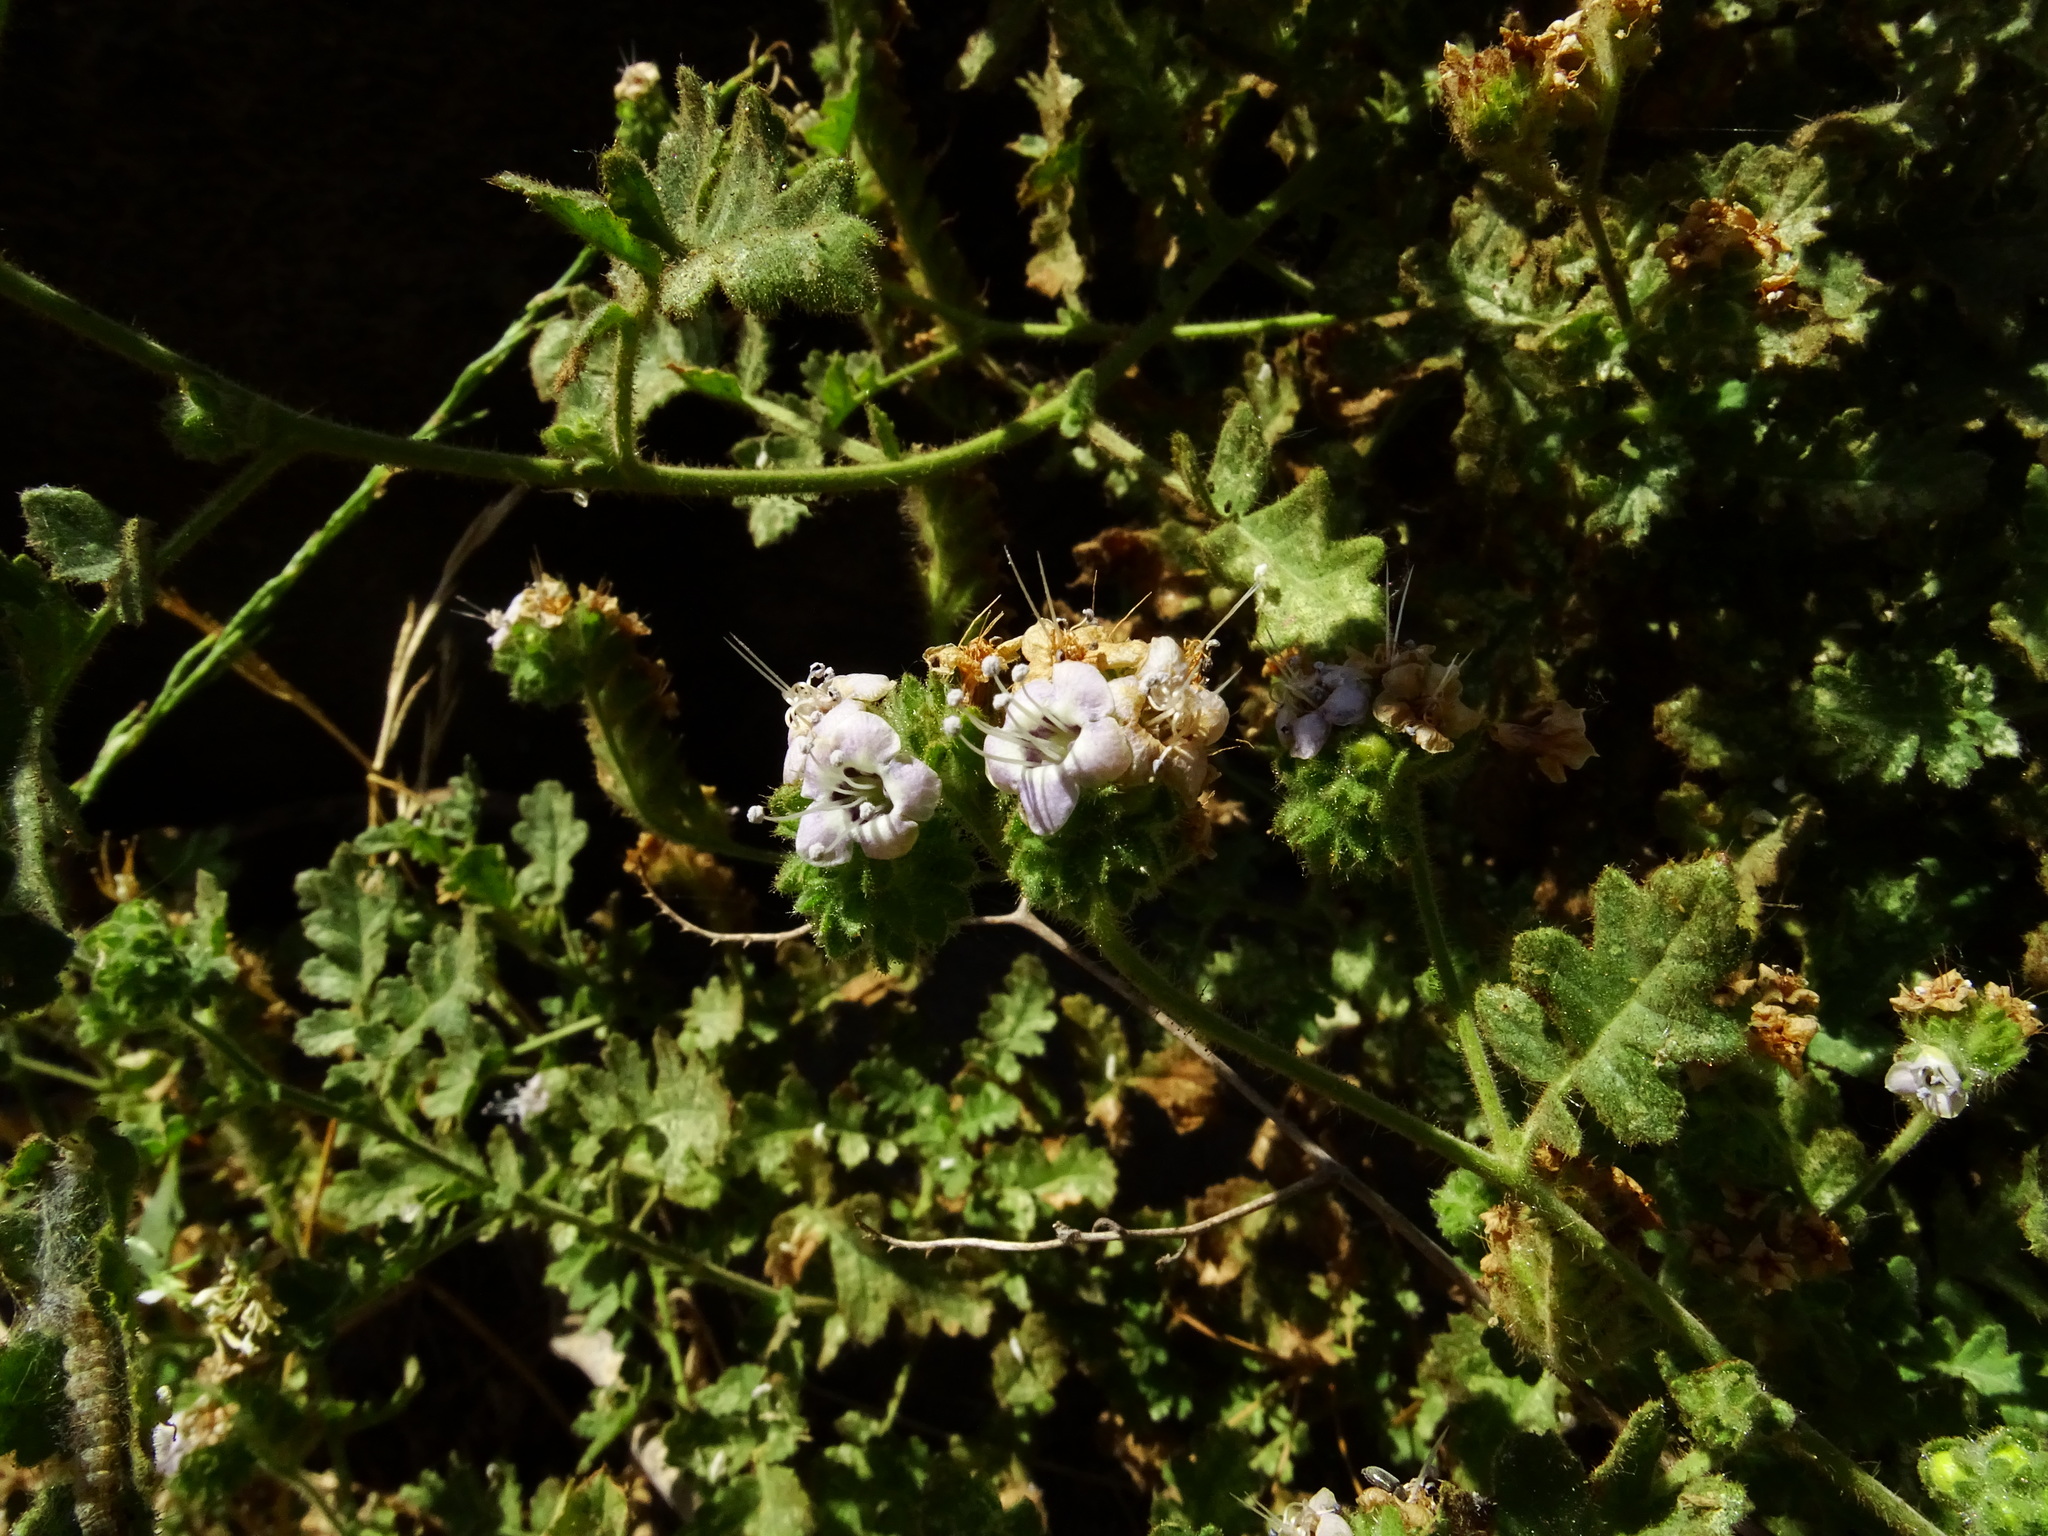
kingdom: Plantae
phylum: Tracheophyta
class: Magnoliopsida
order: Boraginales
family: Hydrophyllaceae
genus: Phacelia
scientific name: Phacelia ramosissima
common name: Branching phacelia
